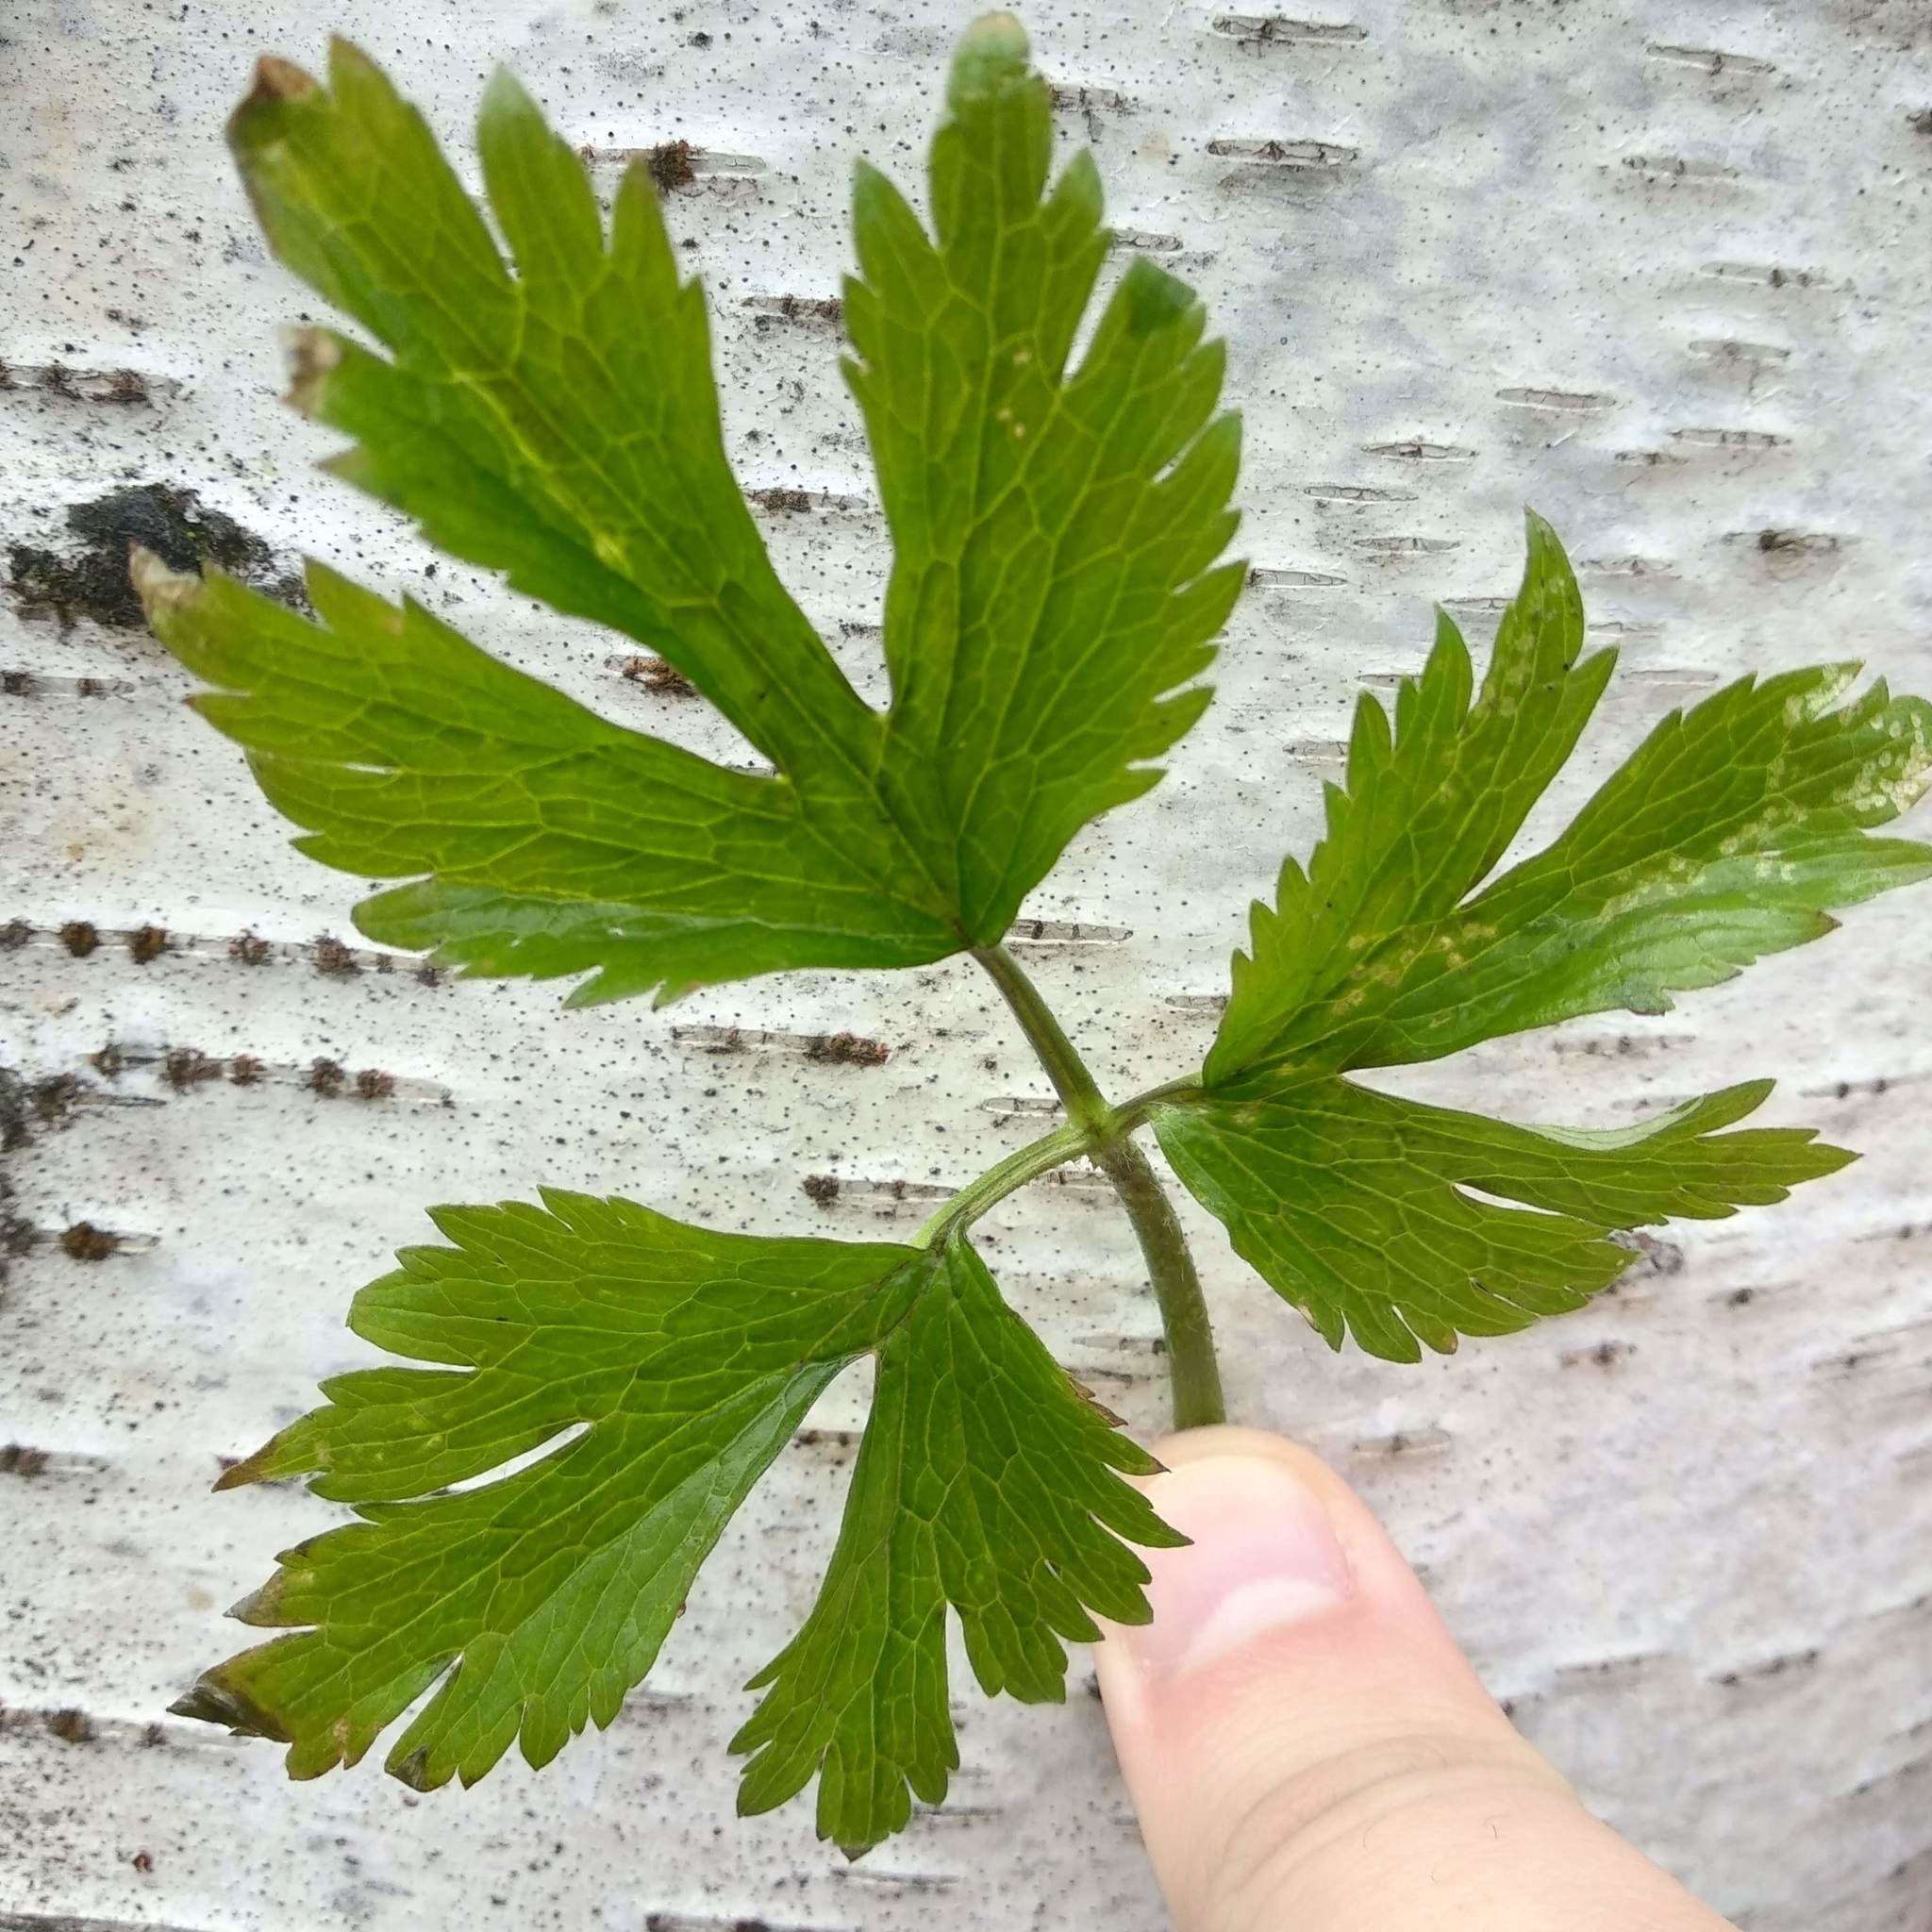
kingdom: Plantae
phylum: Tracheophyta
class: Magnoliopsida
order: Ranunculales
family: Ranunculaceae
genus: Ranunculus
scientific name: Ranunculus repens
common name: Creeping buttercup
